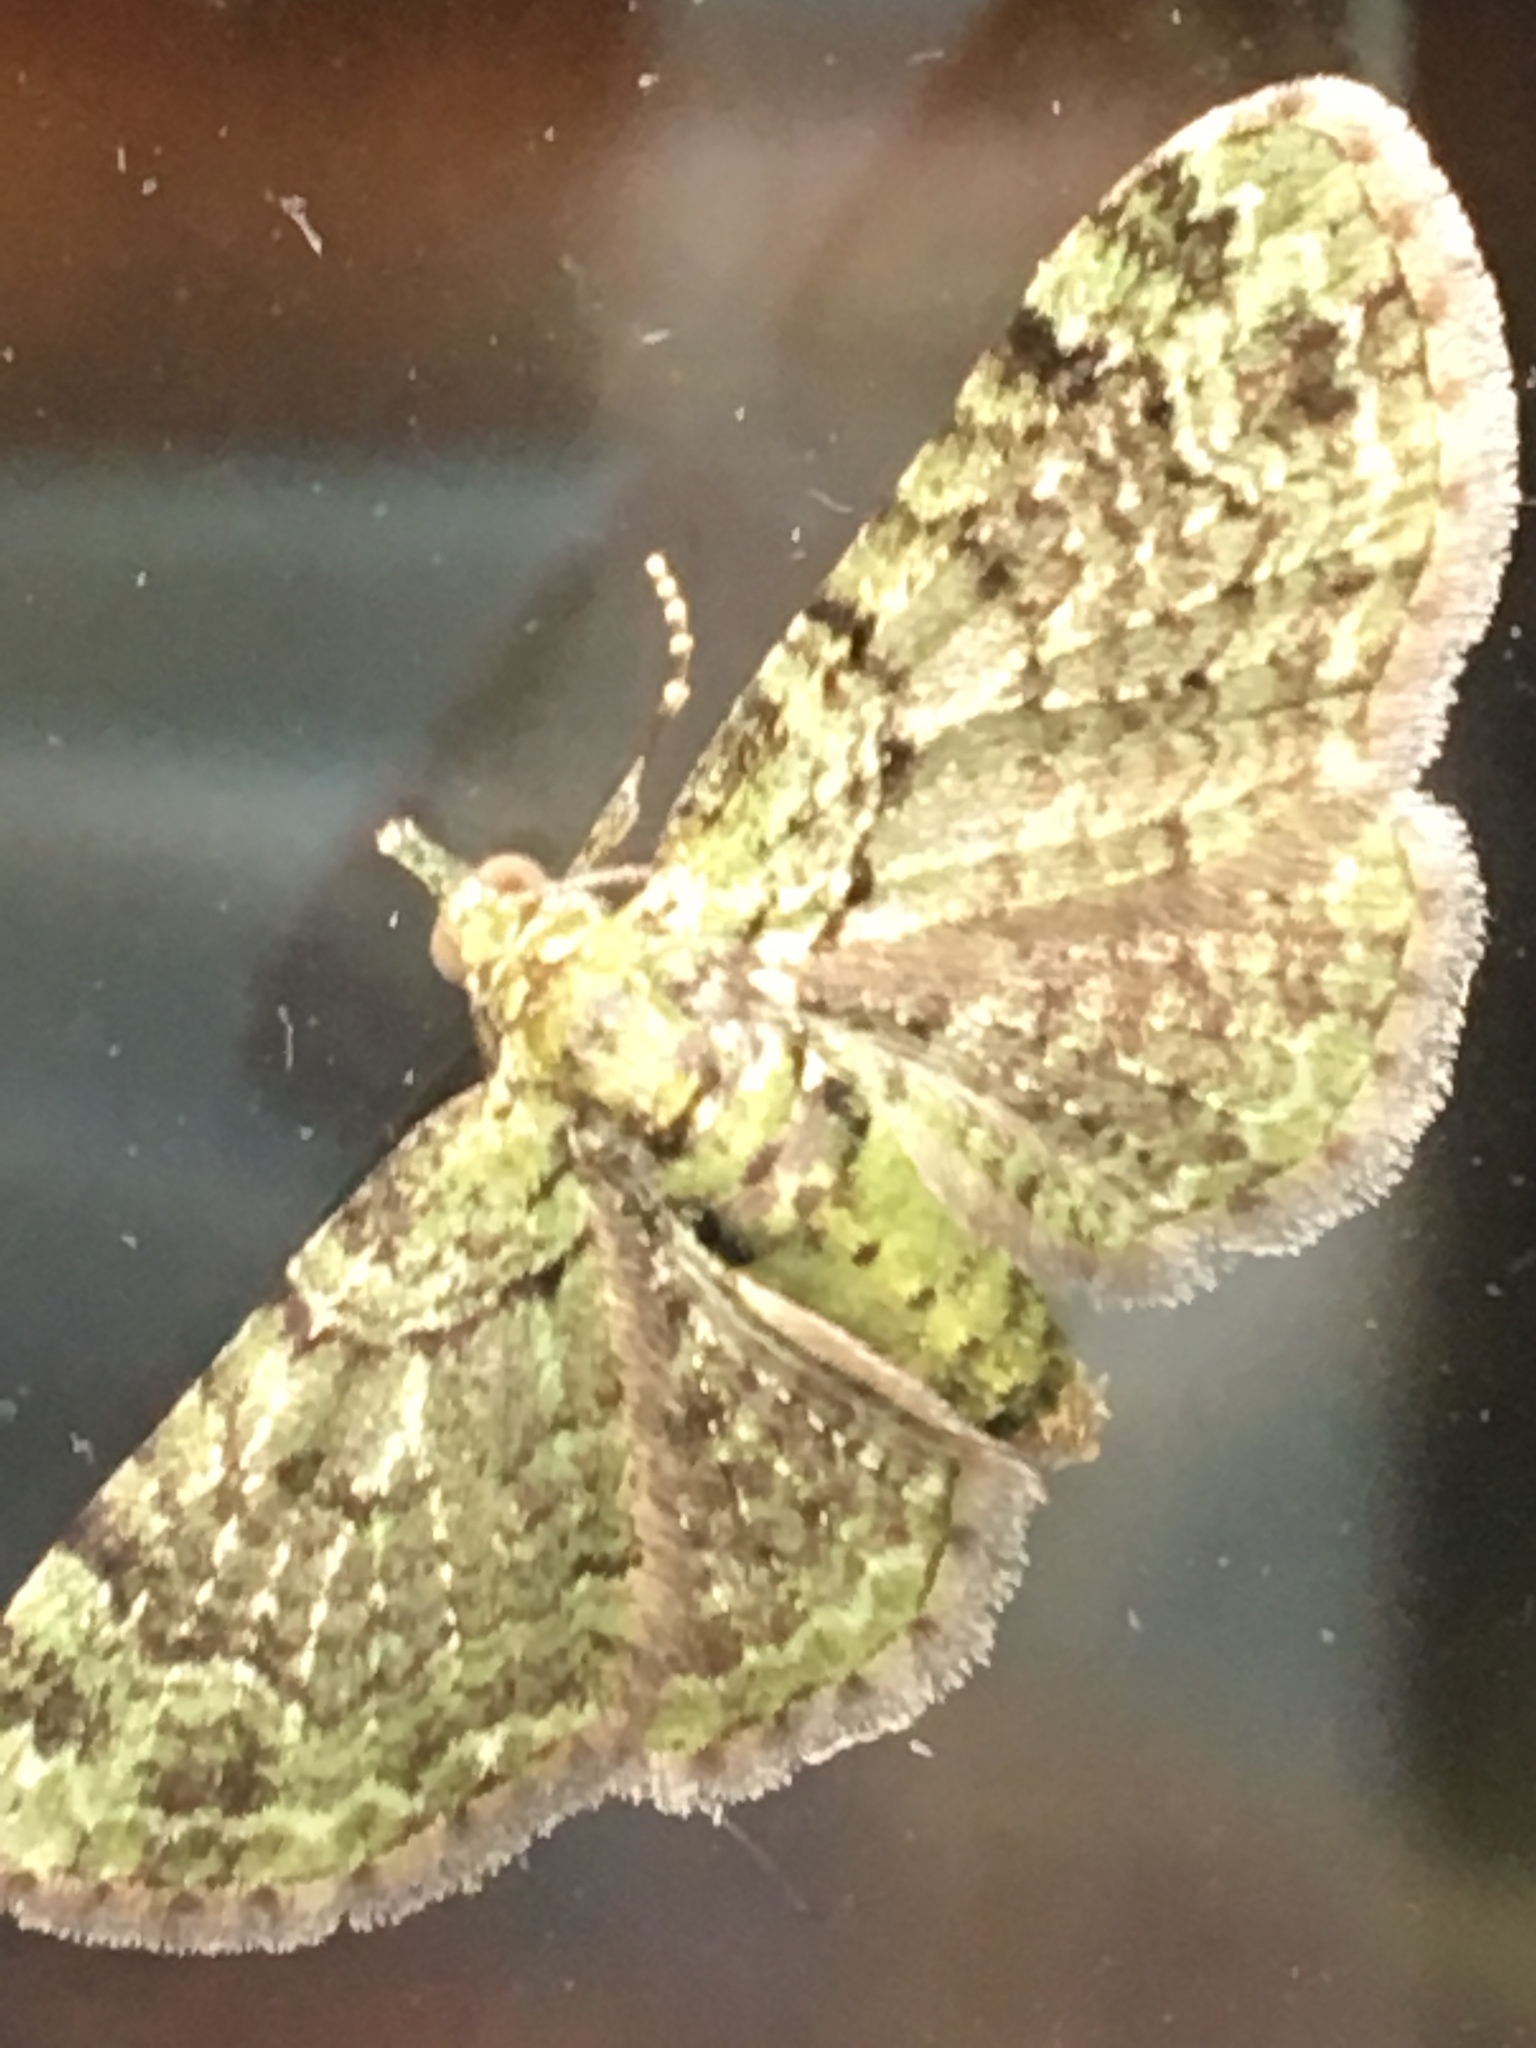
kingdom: Animalia
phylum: Arthropoda
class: Insecta
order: Lepidoptera
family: Geometridae
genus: Pasiphila
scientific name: Pasiphila rectangulata
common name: Green pug
